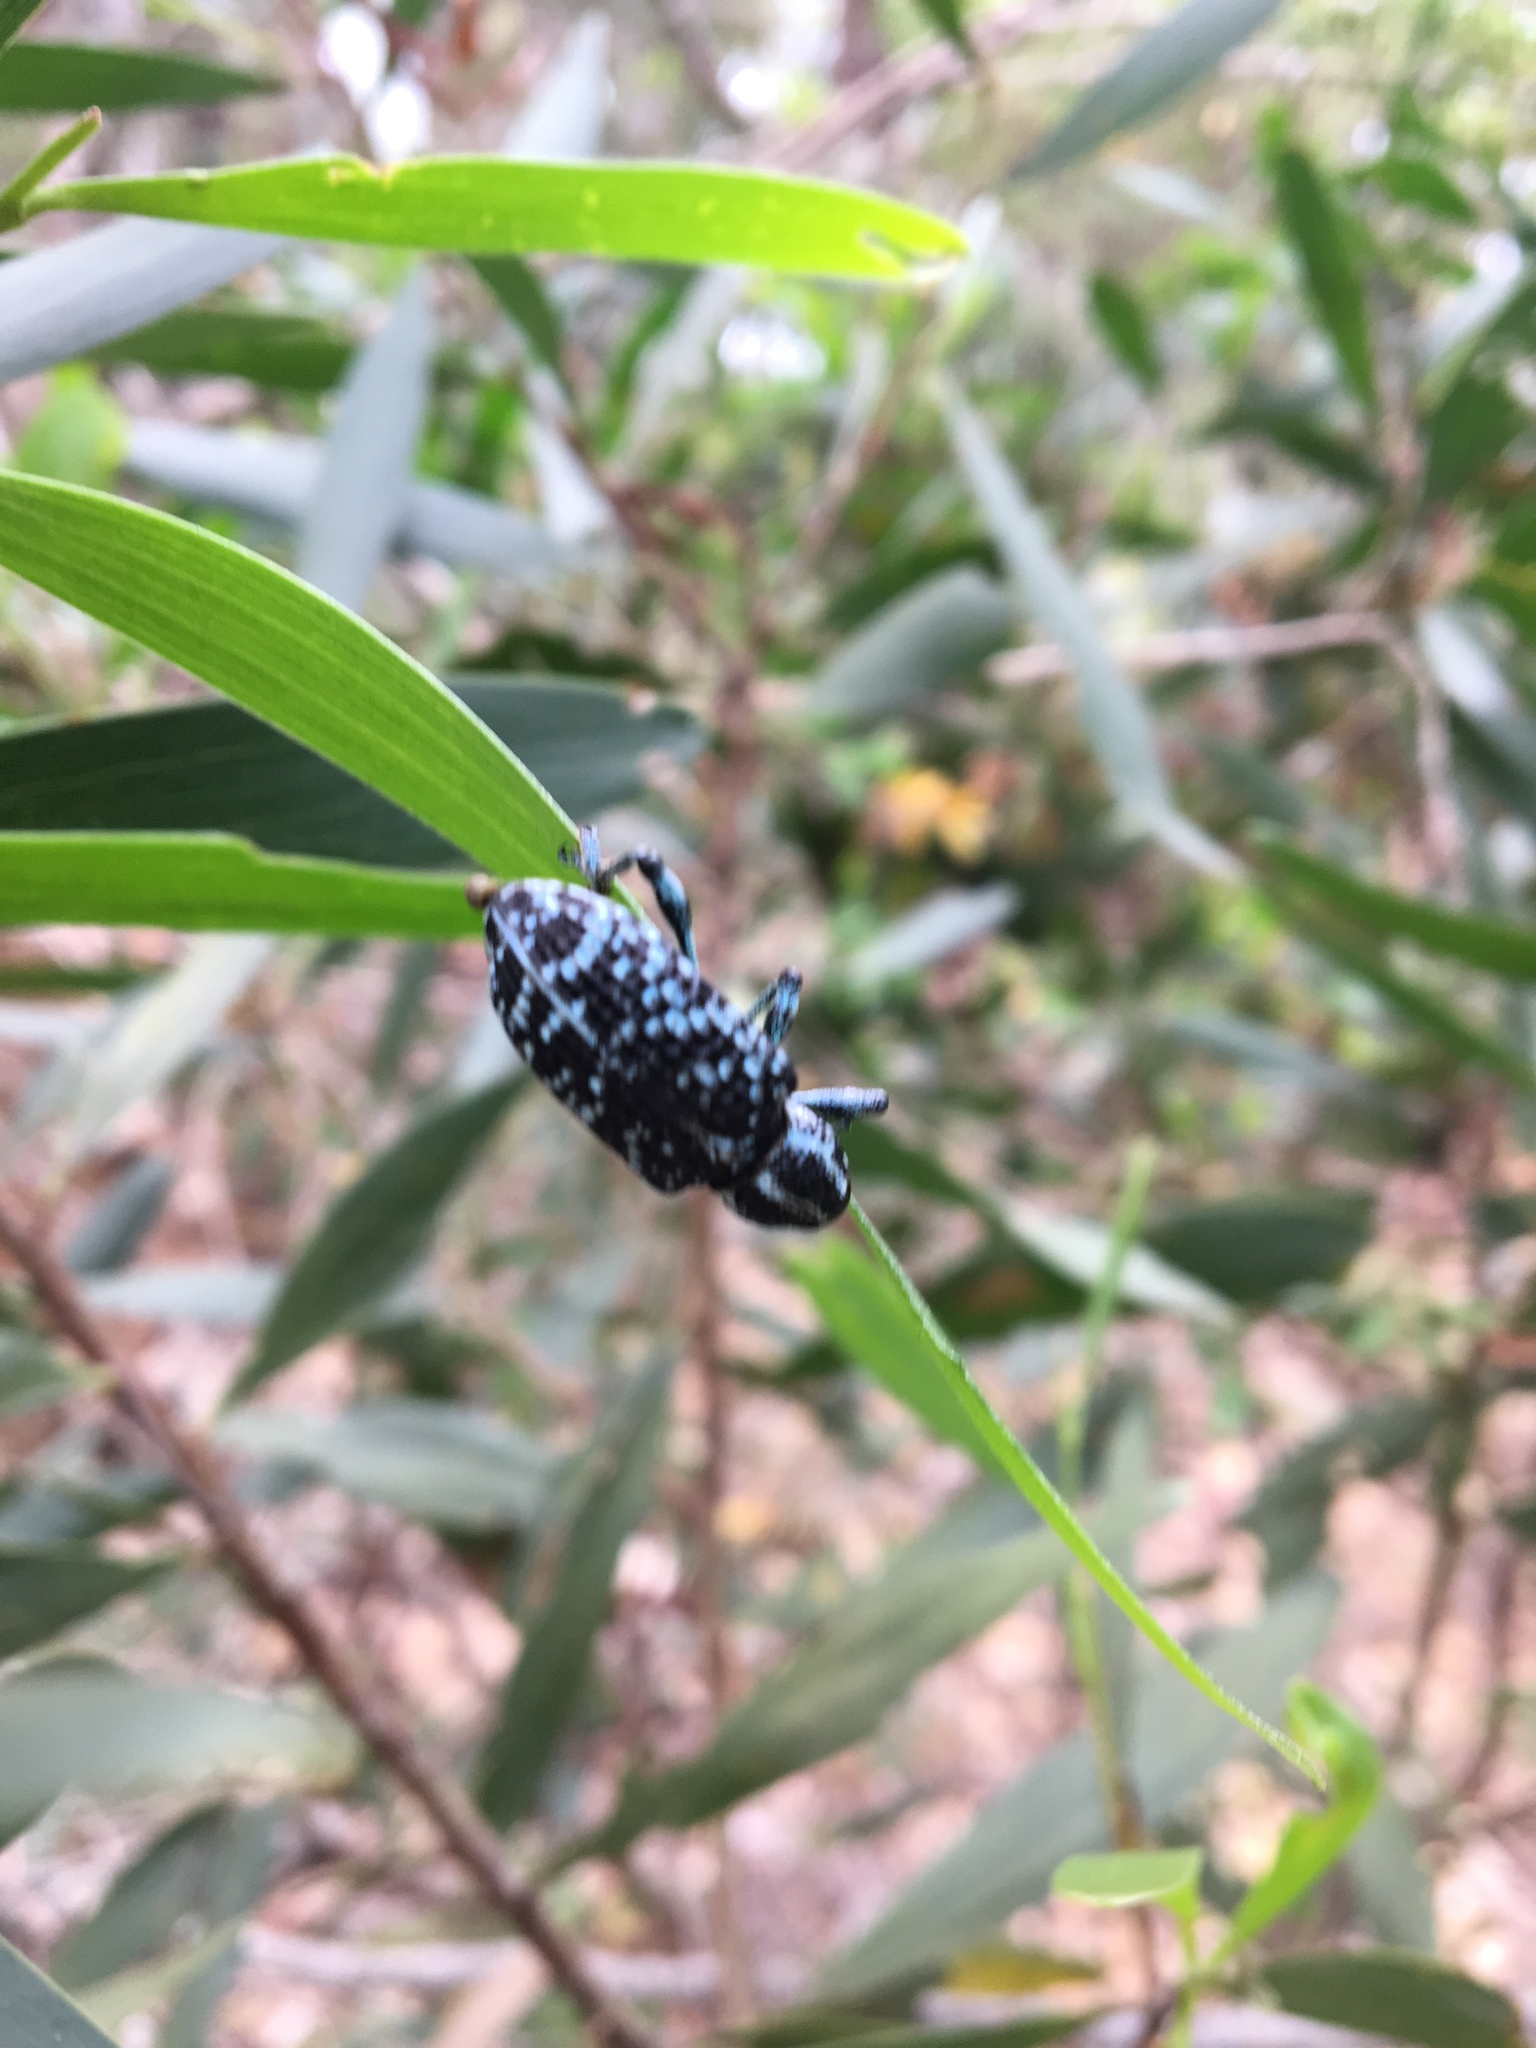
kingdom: Animalia
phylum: Arthropoda
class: Insecta
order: Coleoptera
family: Curculionidae
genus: Chrysolopus
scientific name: Chrysolopus spectabilis
